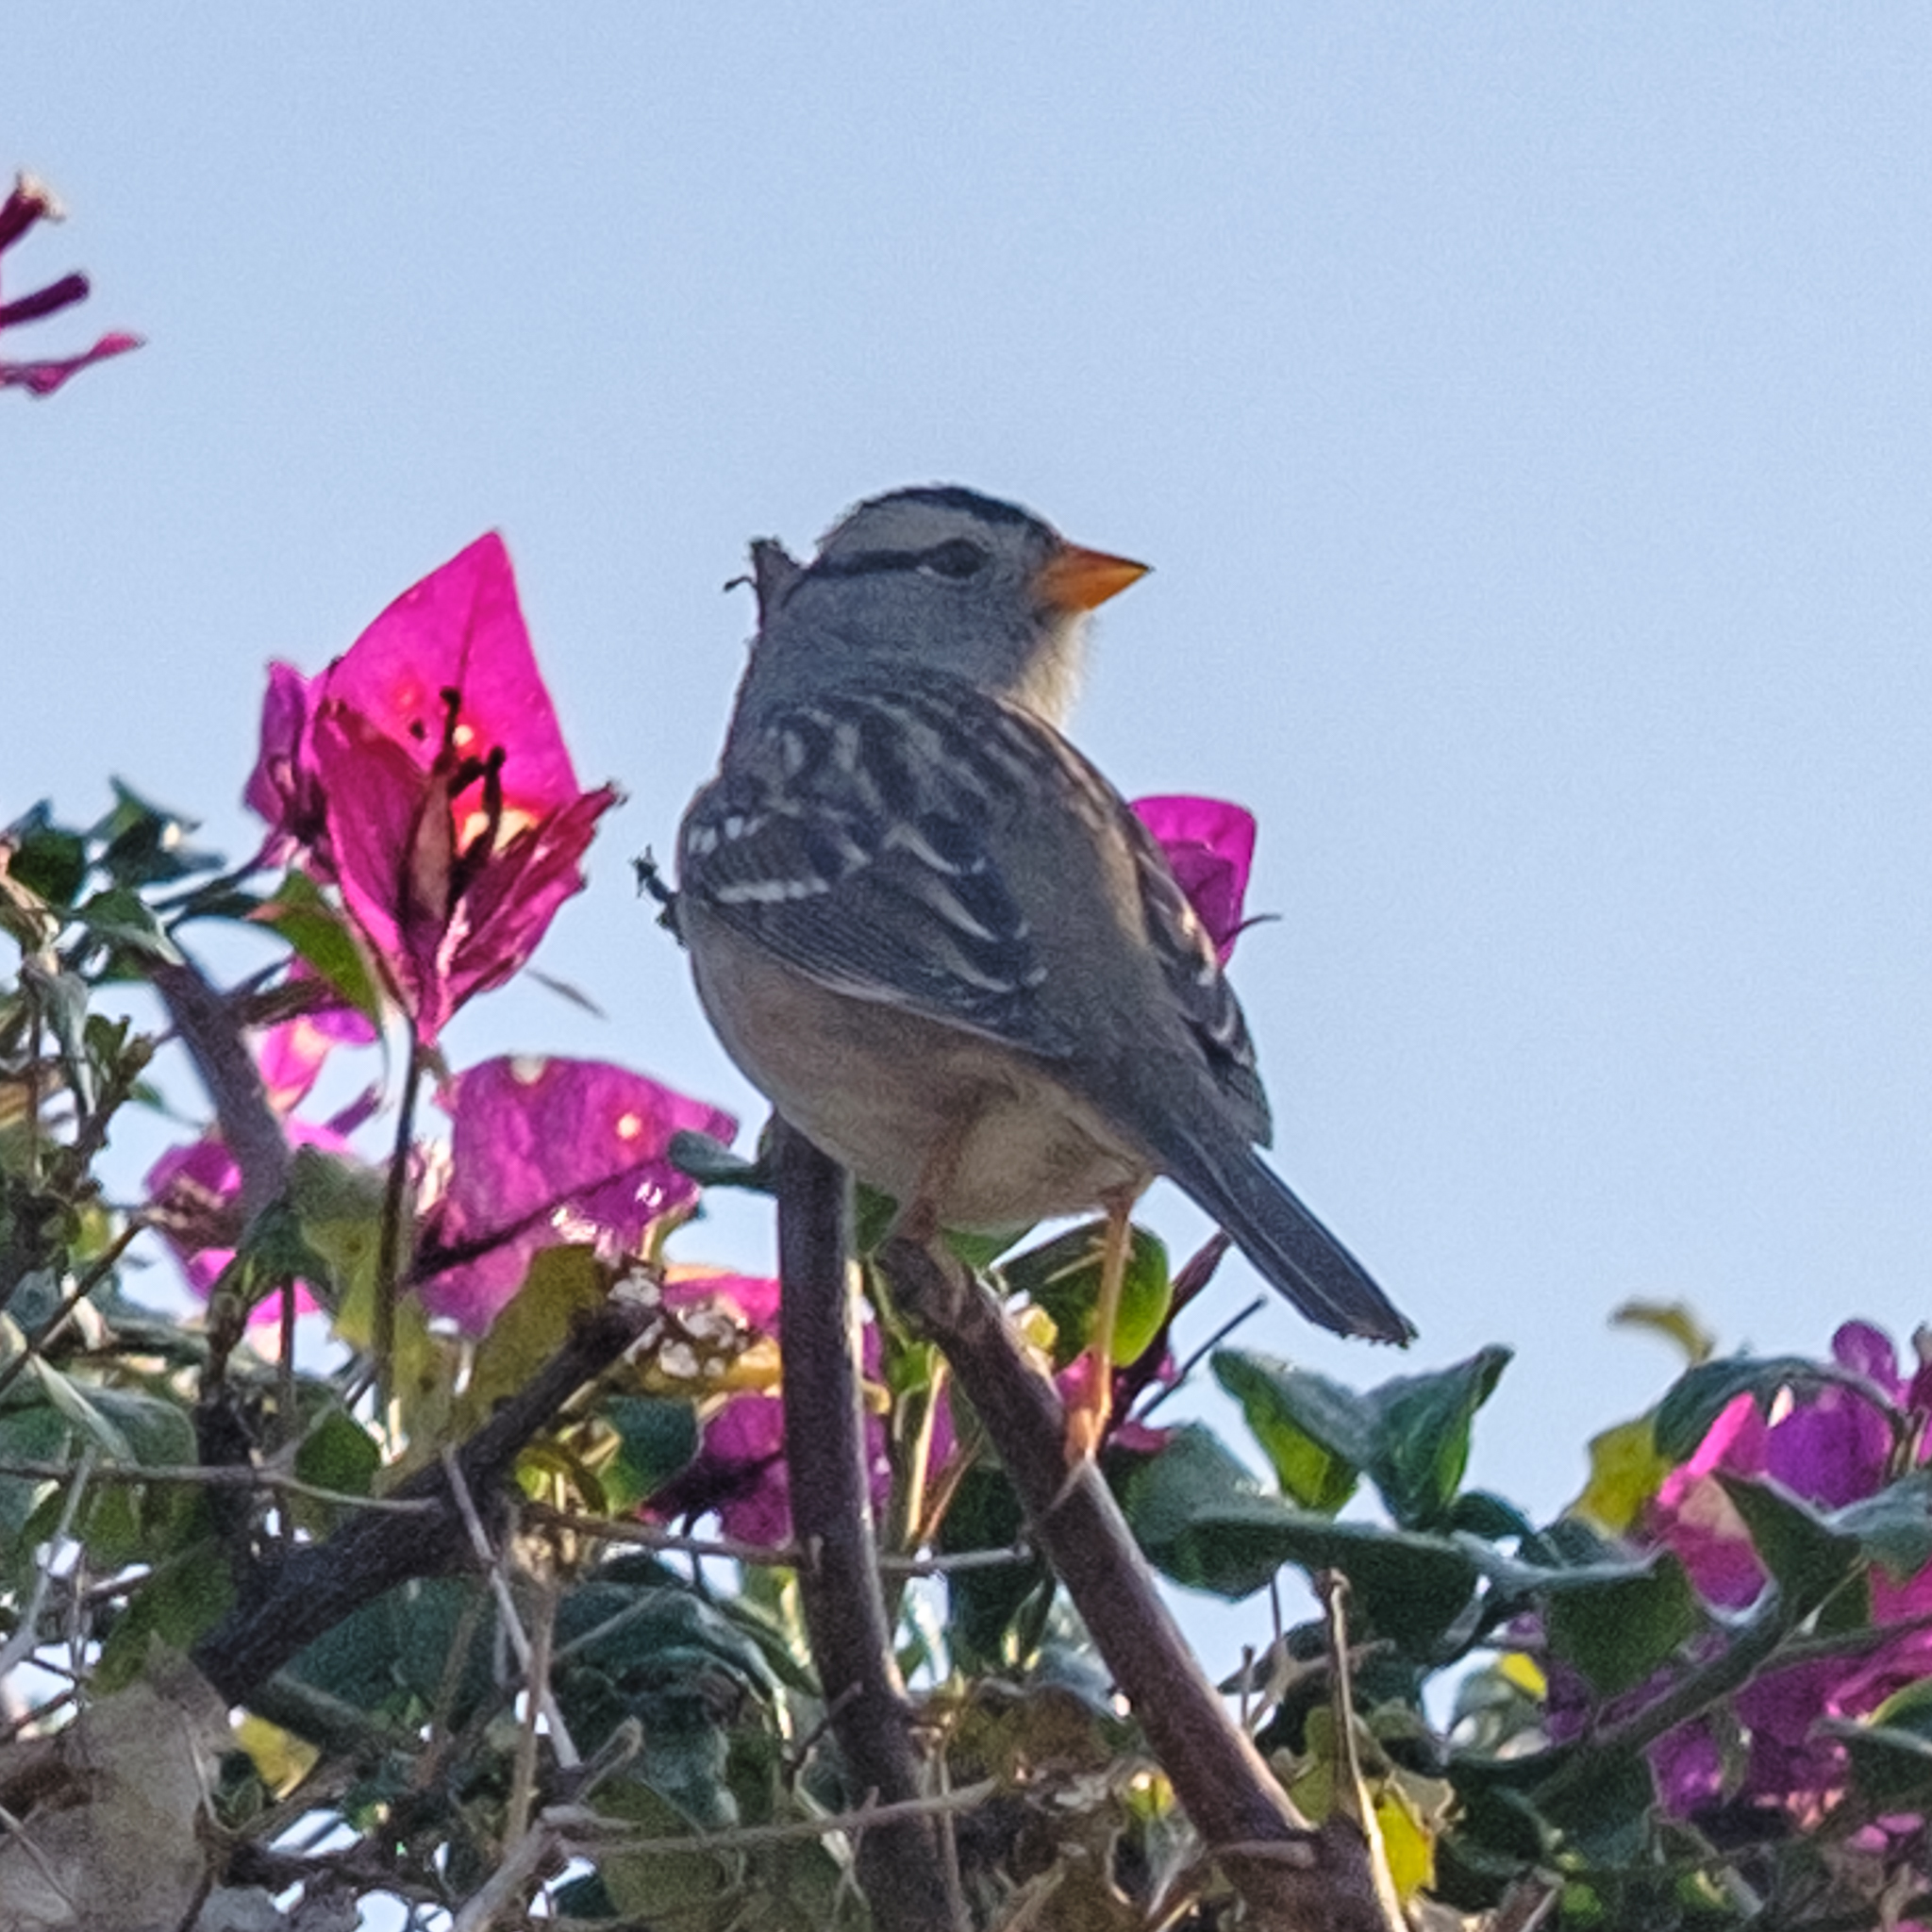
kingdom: Animalia
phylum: Chordata
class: Aves
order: Passeriformes
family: Passerellidae
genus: Zonotrichia
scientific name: Zonotrichia leucophrys
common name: White-crowned sparrow
